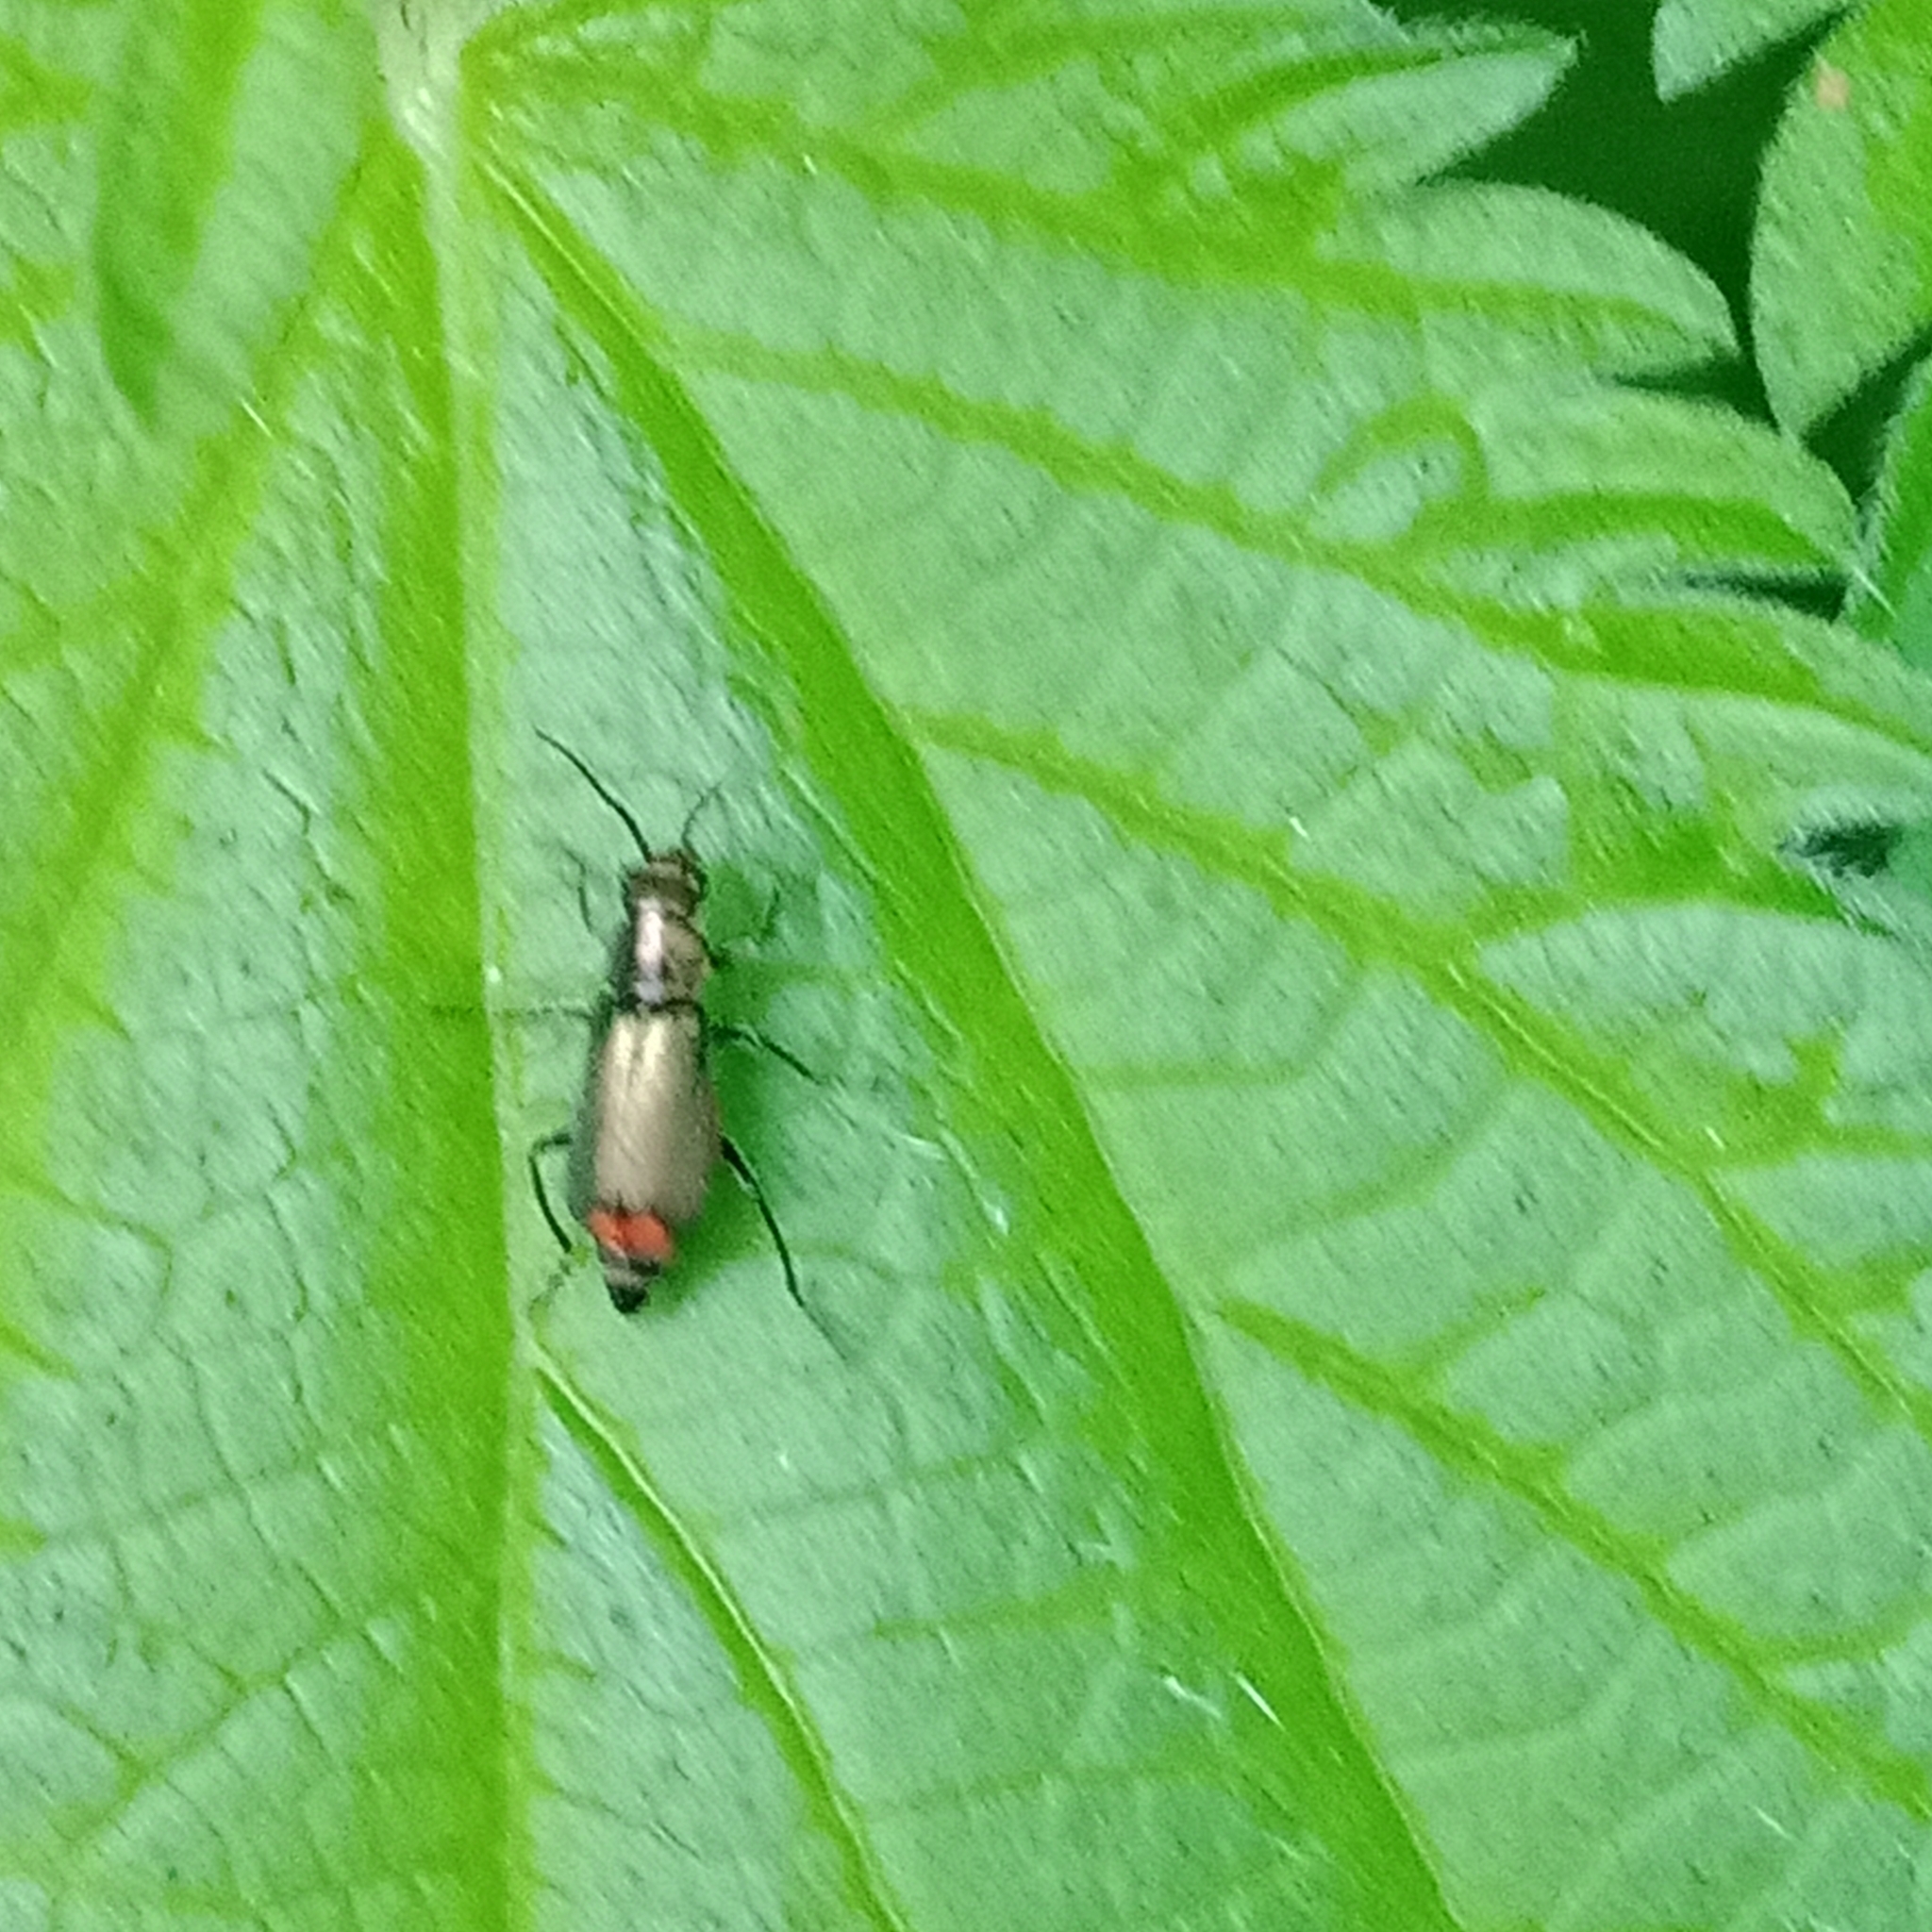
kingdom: Animalia
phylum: Arthropoda
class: Insecta
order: Coleoptera
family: Melyridae
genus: Malachius
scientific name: Malachius bipustulatus
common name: Malachite beetle
